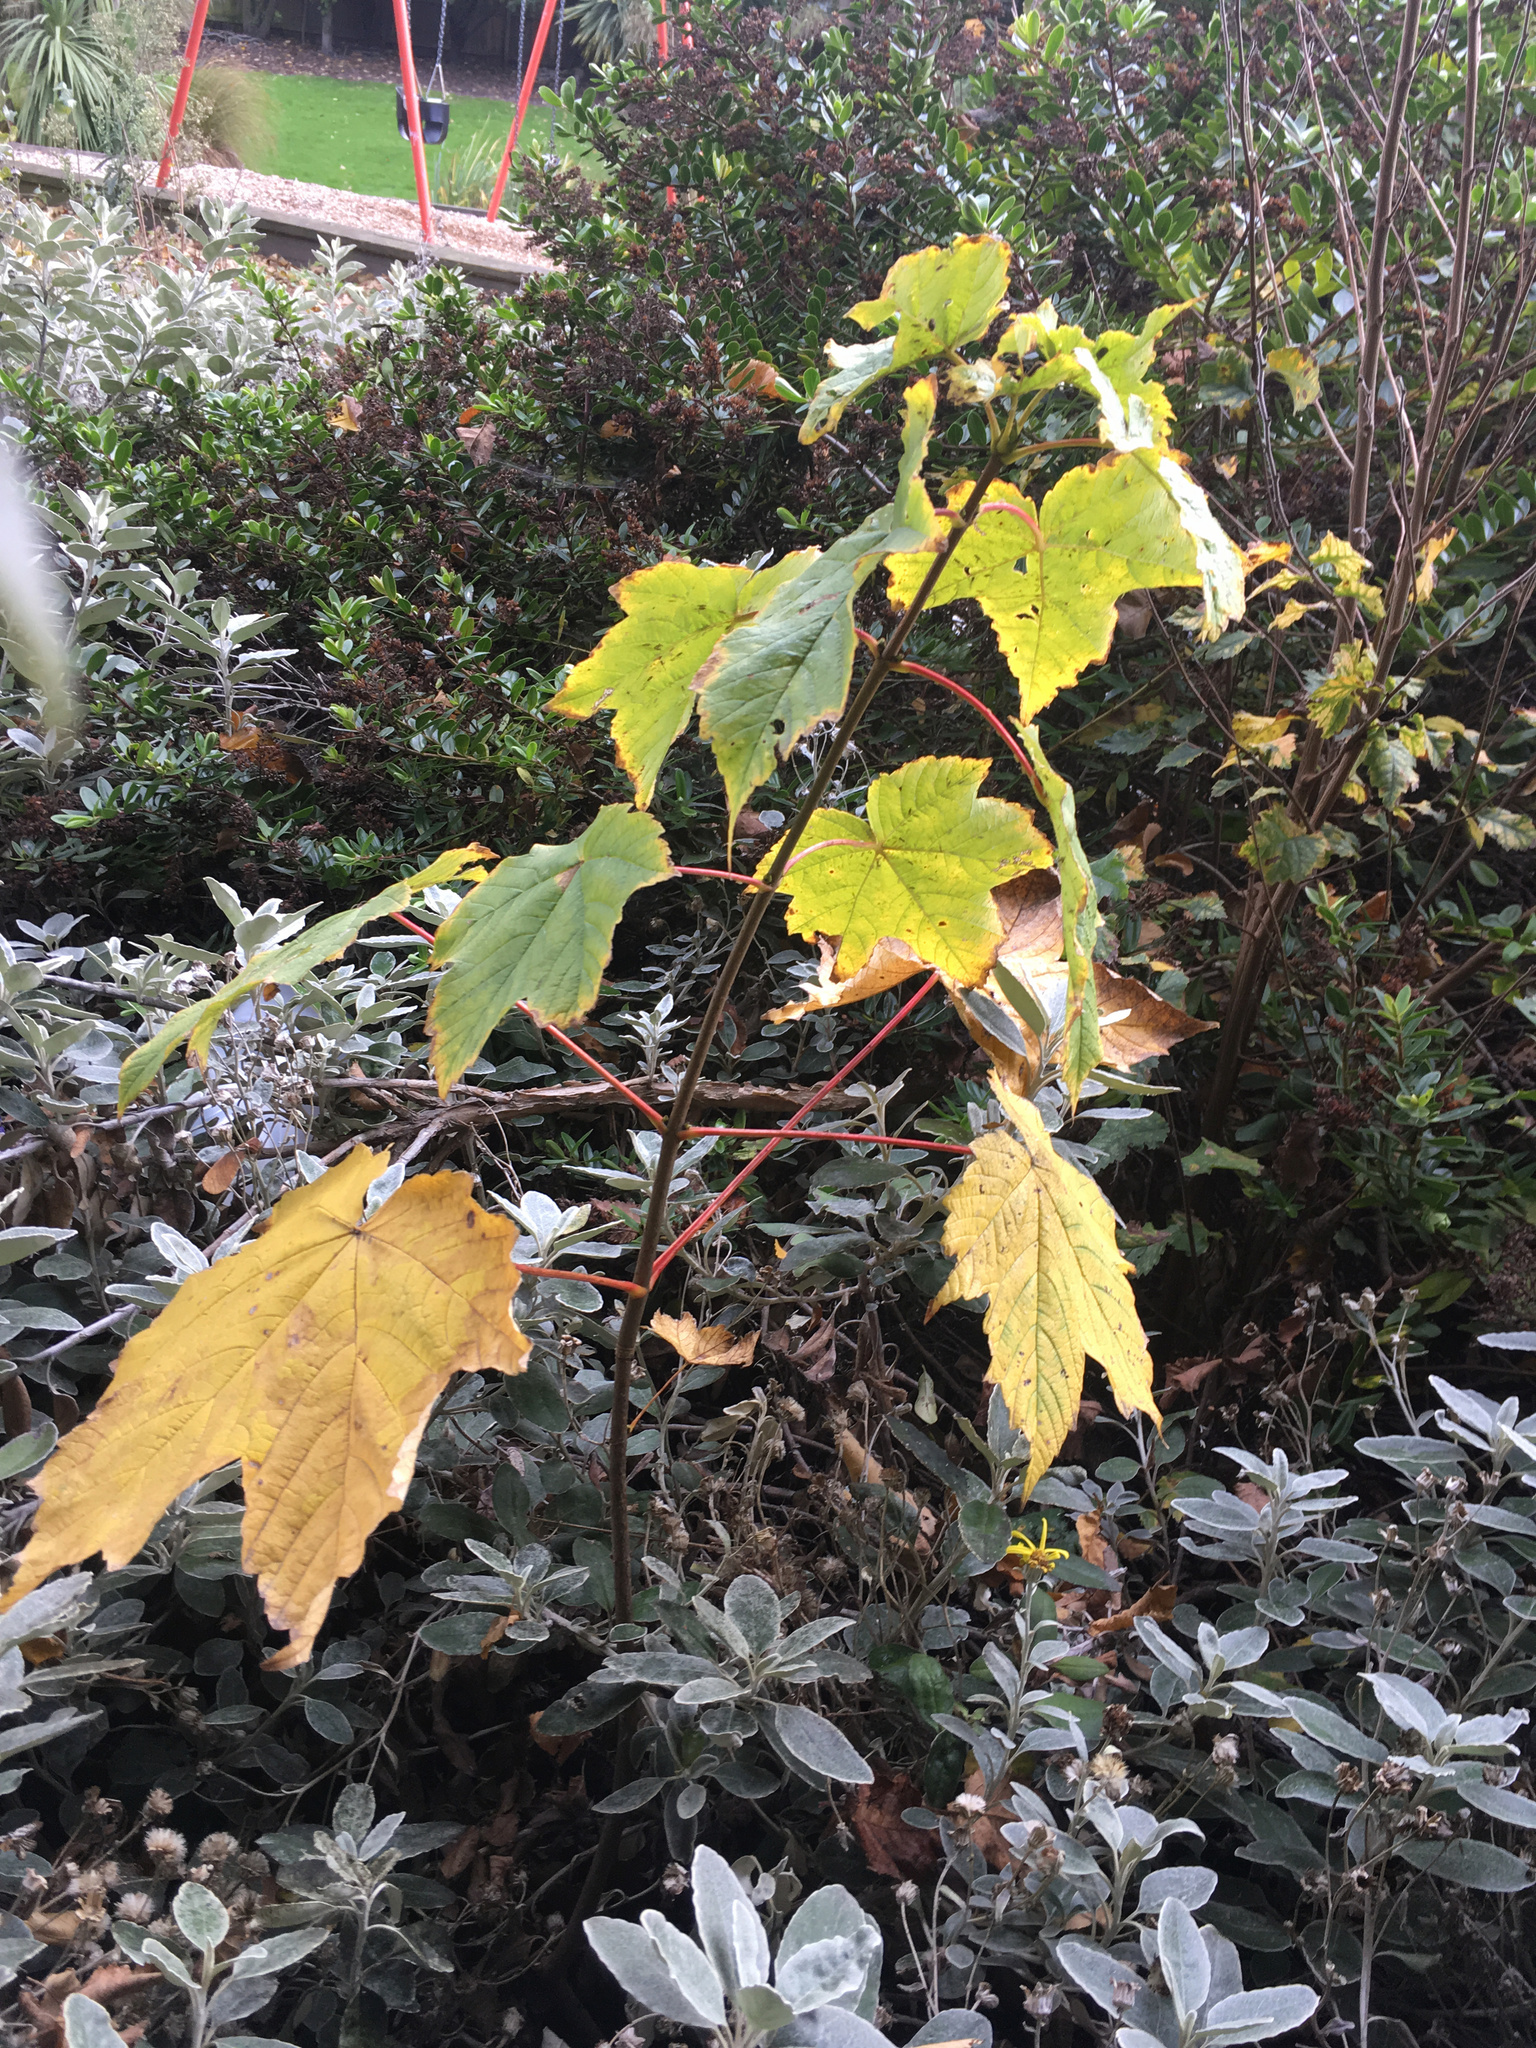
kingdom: Plantae
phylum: Tracheophyta
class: Magnoliopsida
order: Sapindales
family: Sapindaceae
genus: Acer
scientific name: Acer pseudoplatanus
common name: Sycamore
